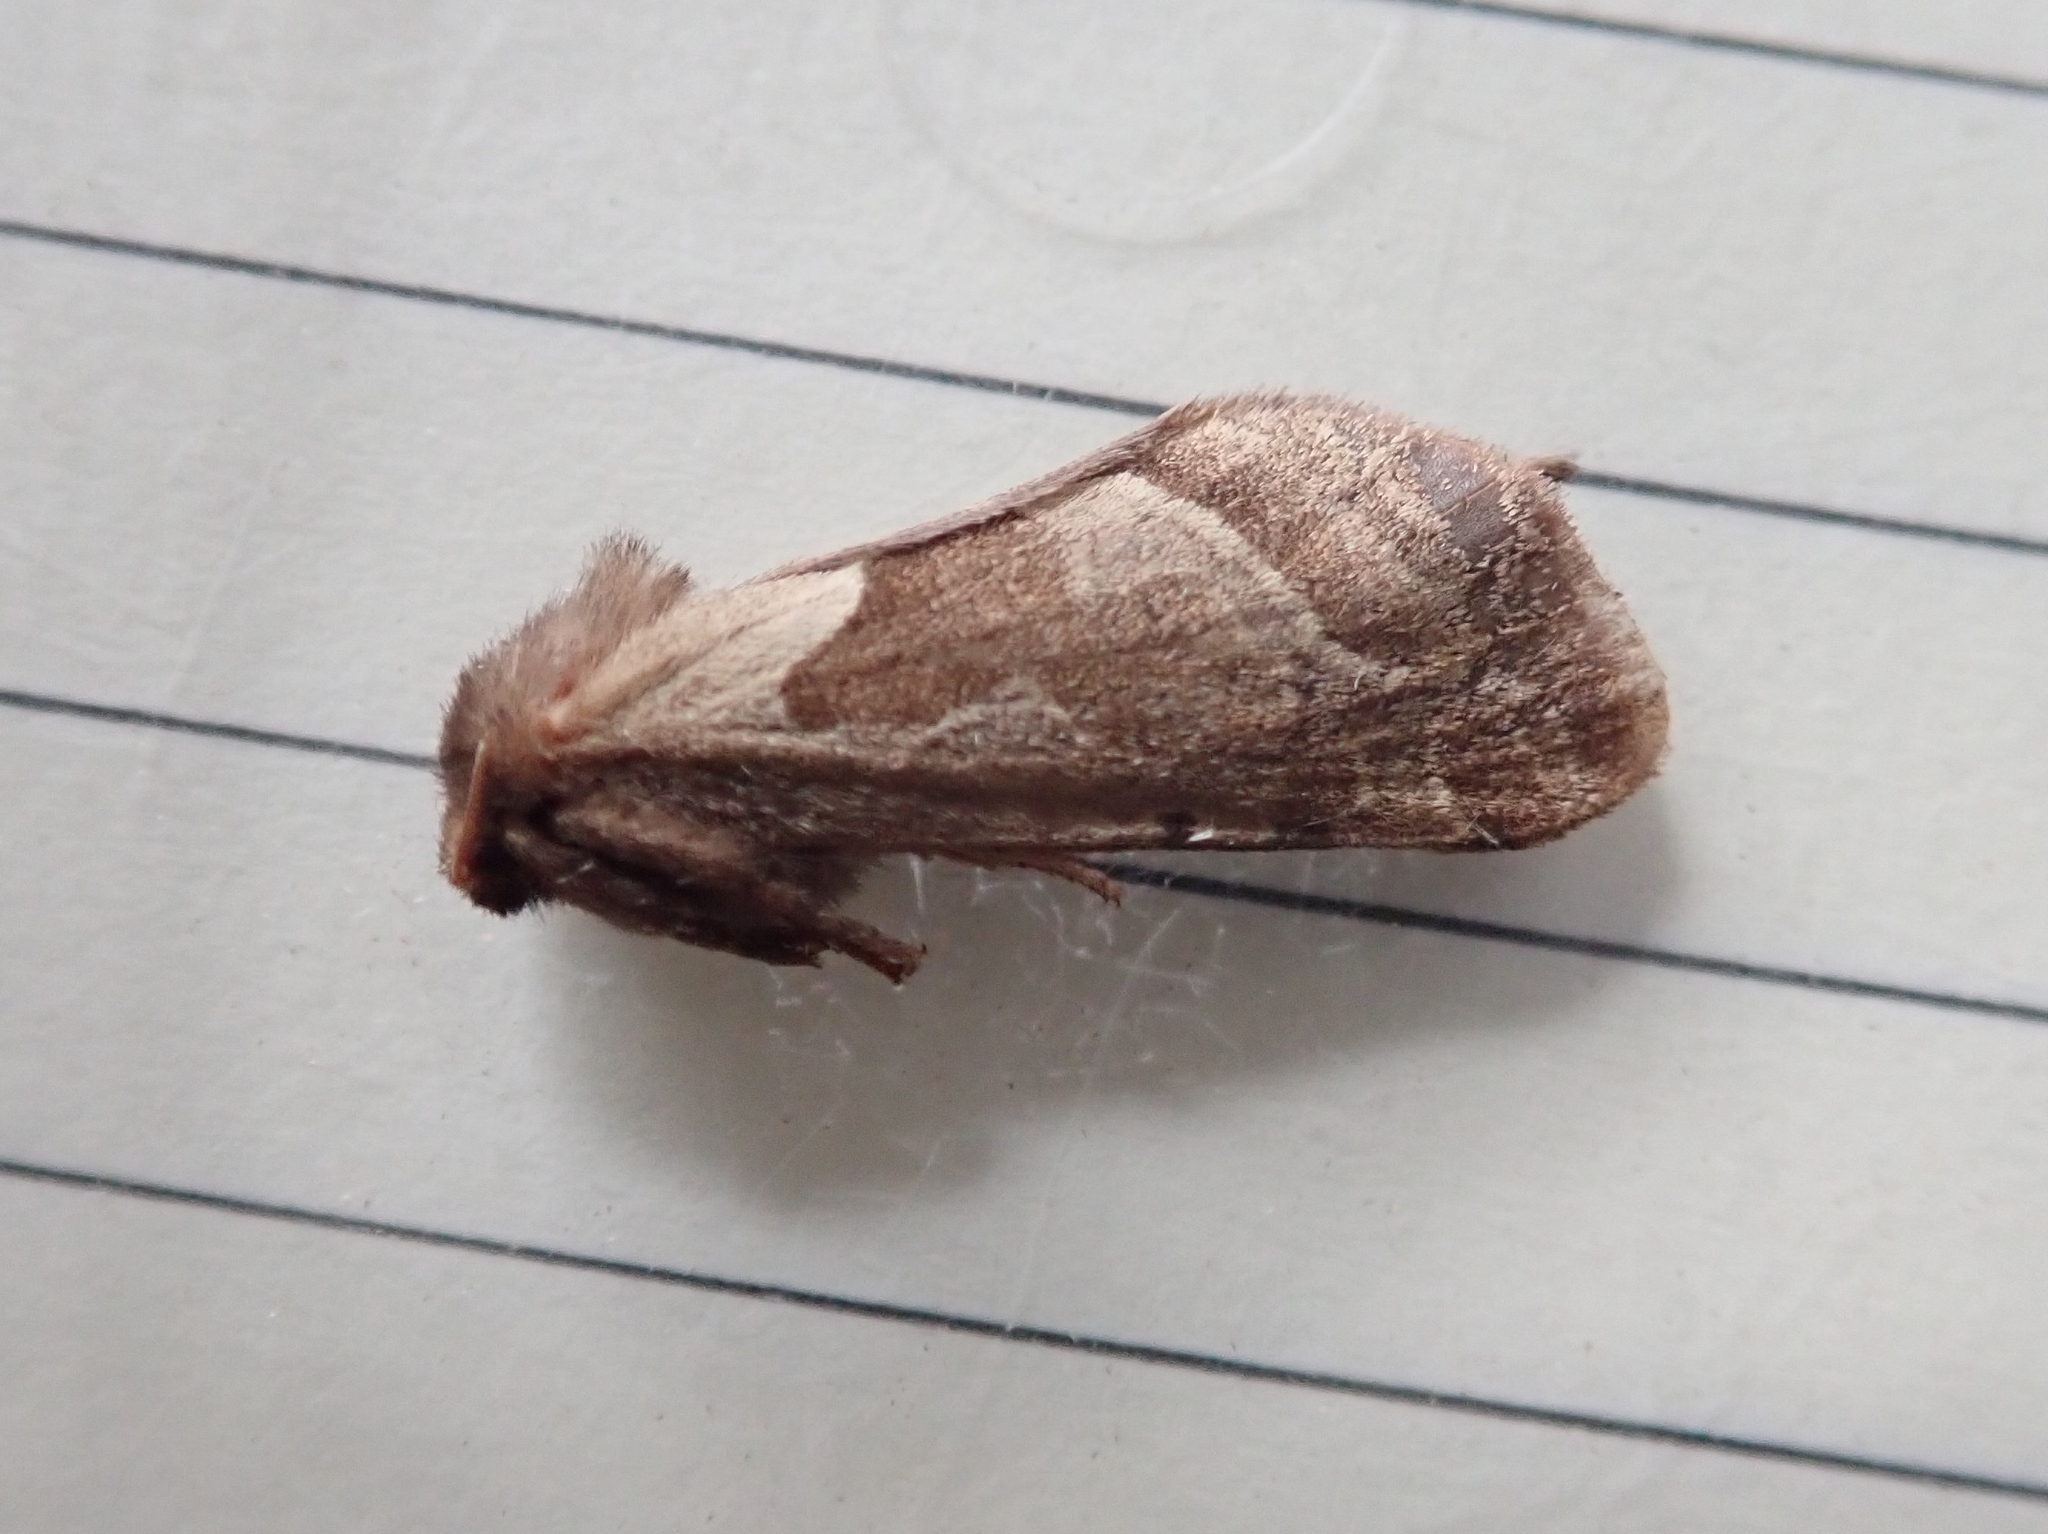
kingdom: Animalia
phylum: Arthropoda
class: Insecta
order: Lepidoptera
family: Hepialidae
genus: Triodia
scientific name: Triodia sylvina
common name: Orange swift
